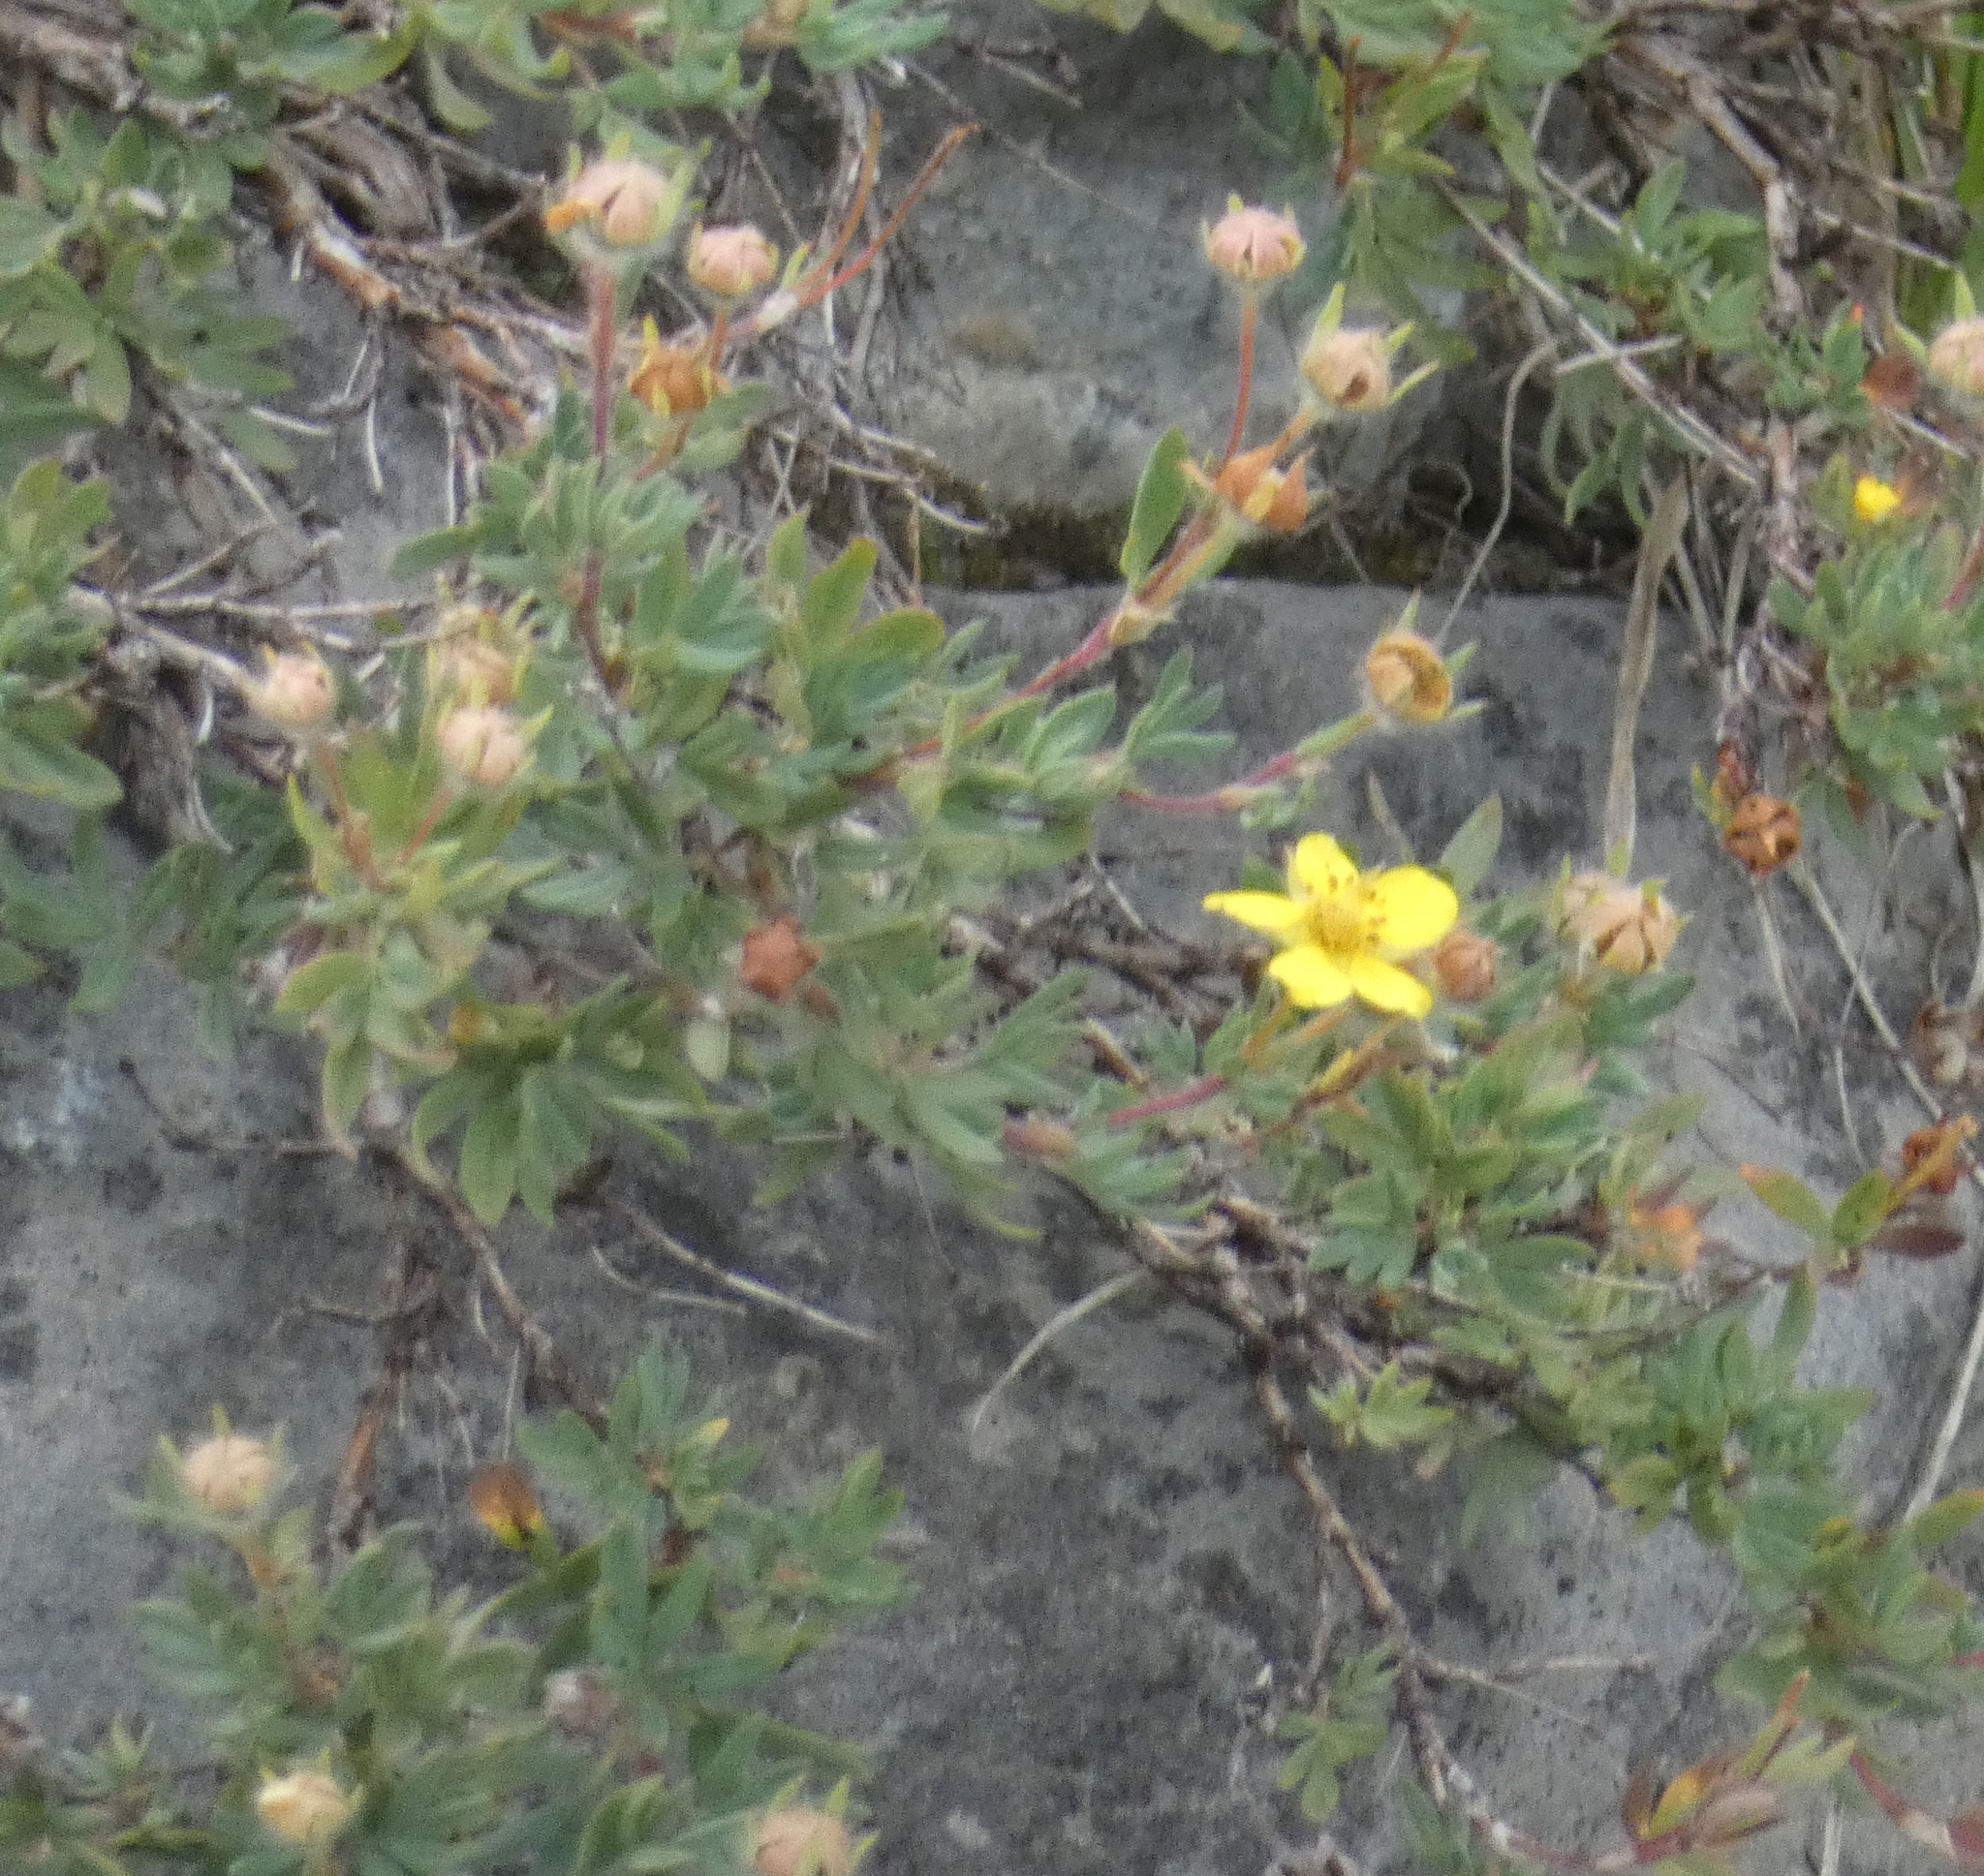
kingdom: Plantae
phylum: Tracheophyta
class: Magnoliopsida
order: Rosales
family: Rosaceae
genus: Dasiphora
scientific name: Dasiphora fruticosa
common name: Shrubby cinquefoil
